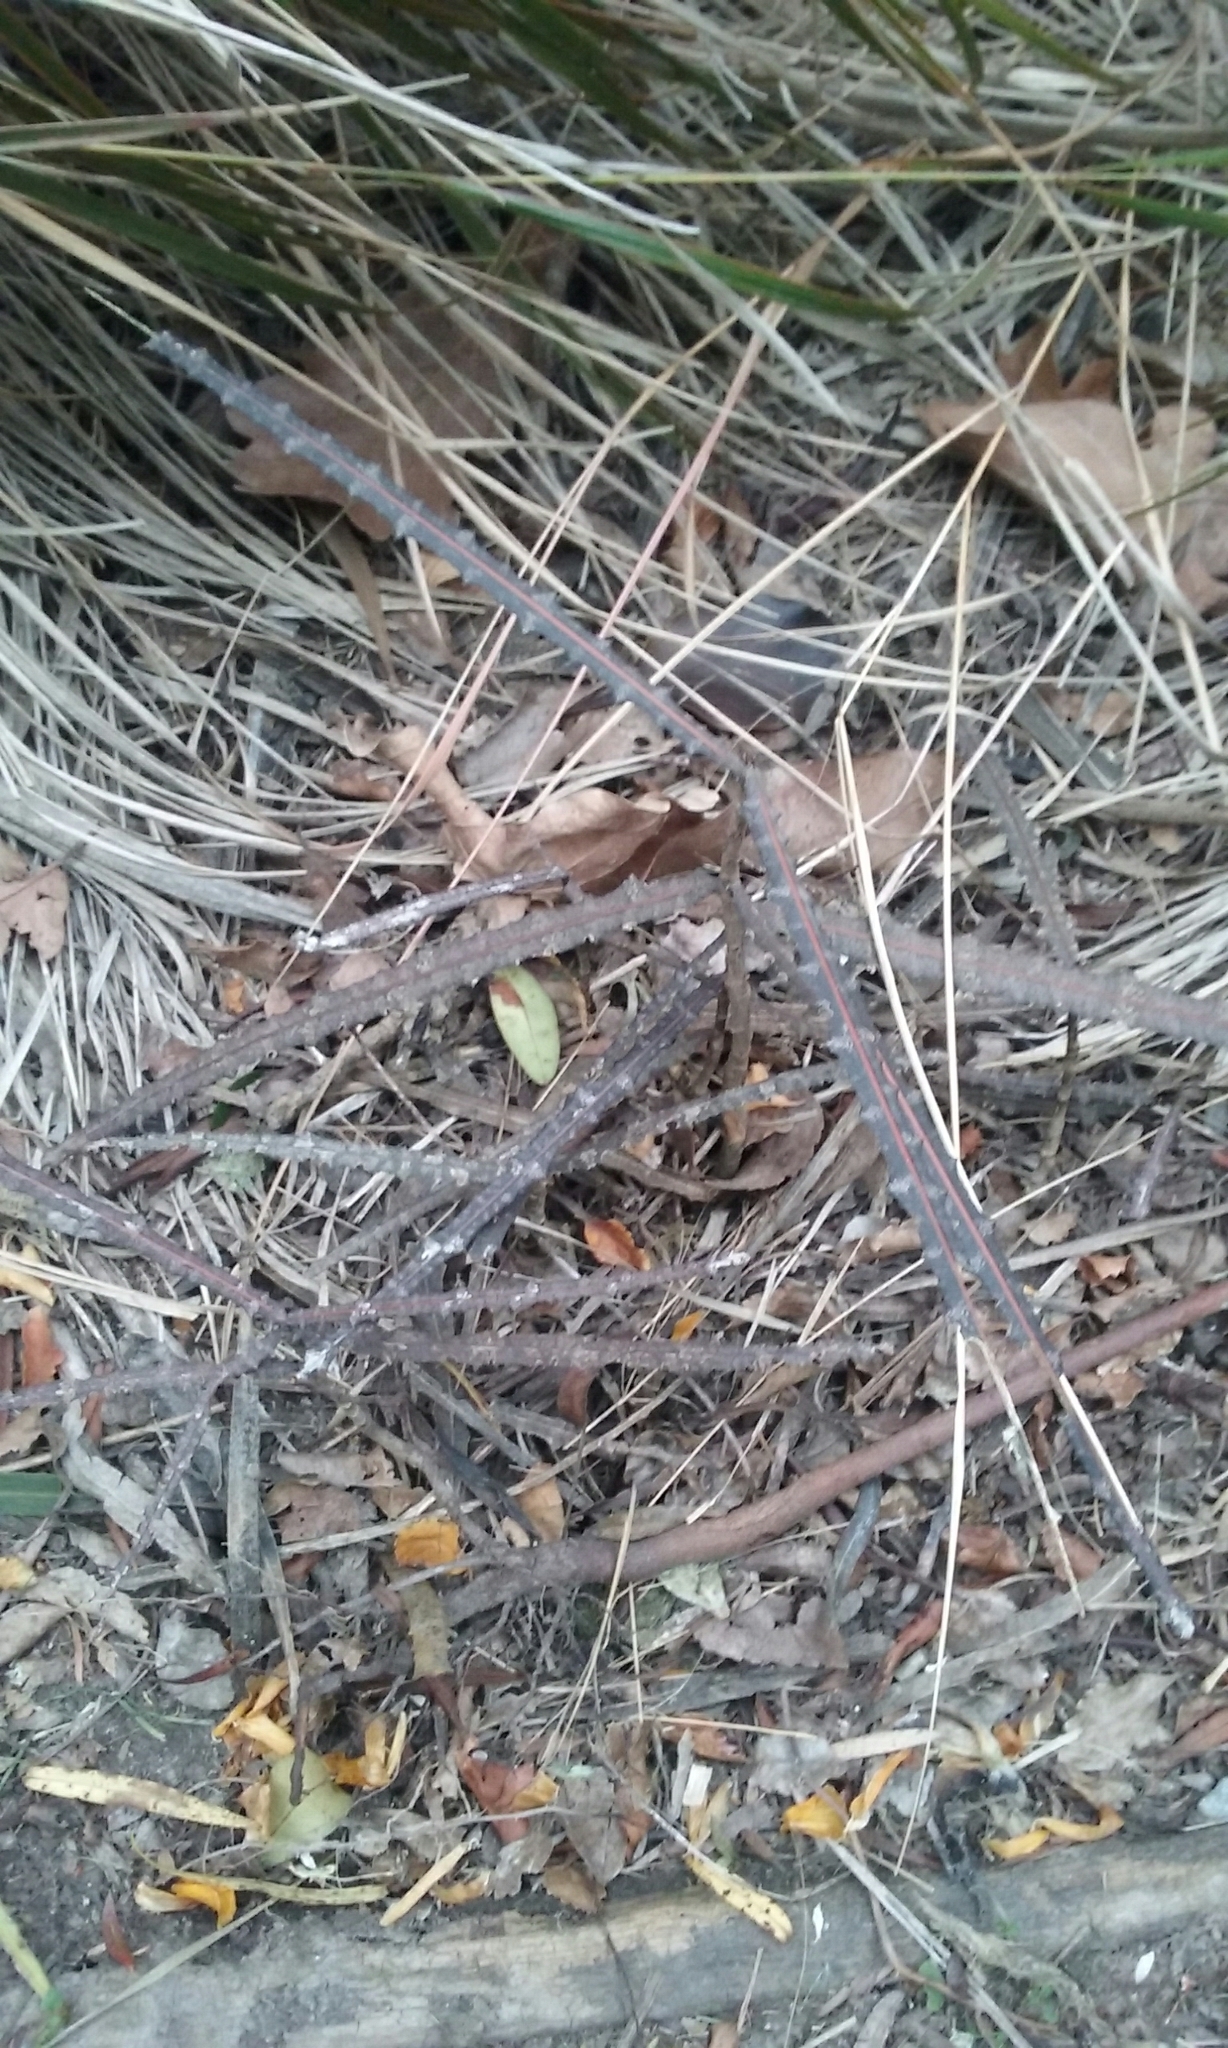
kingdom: Plantae
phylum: Tracheophyta
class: Magnoliopsida
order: Apiales
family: Araliaceae
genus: Pseudopanax
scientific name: Pseudopanax ferox
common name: Fierce lancewood
